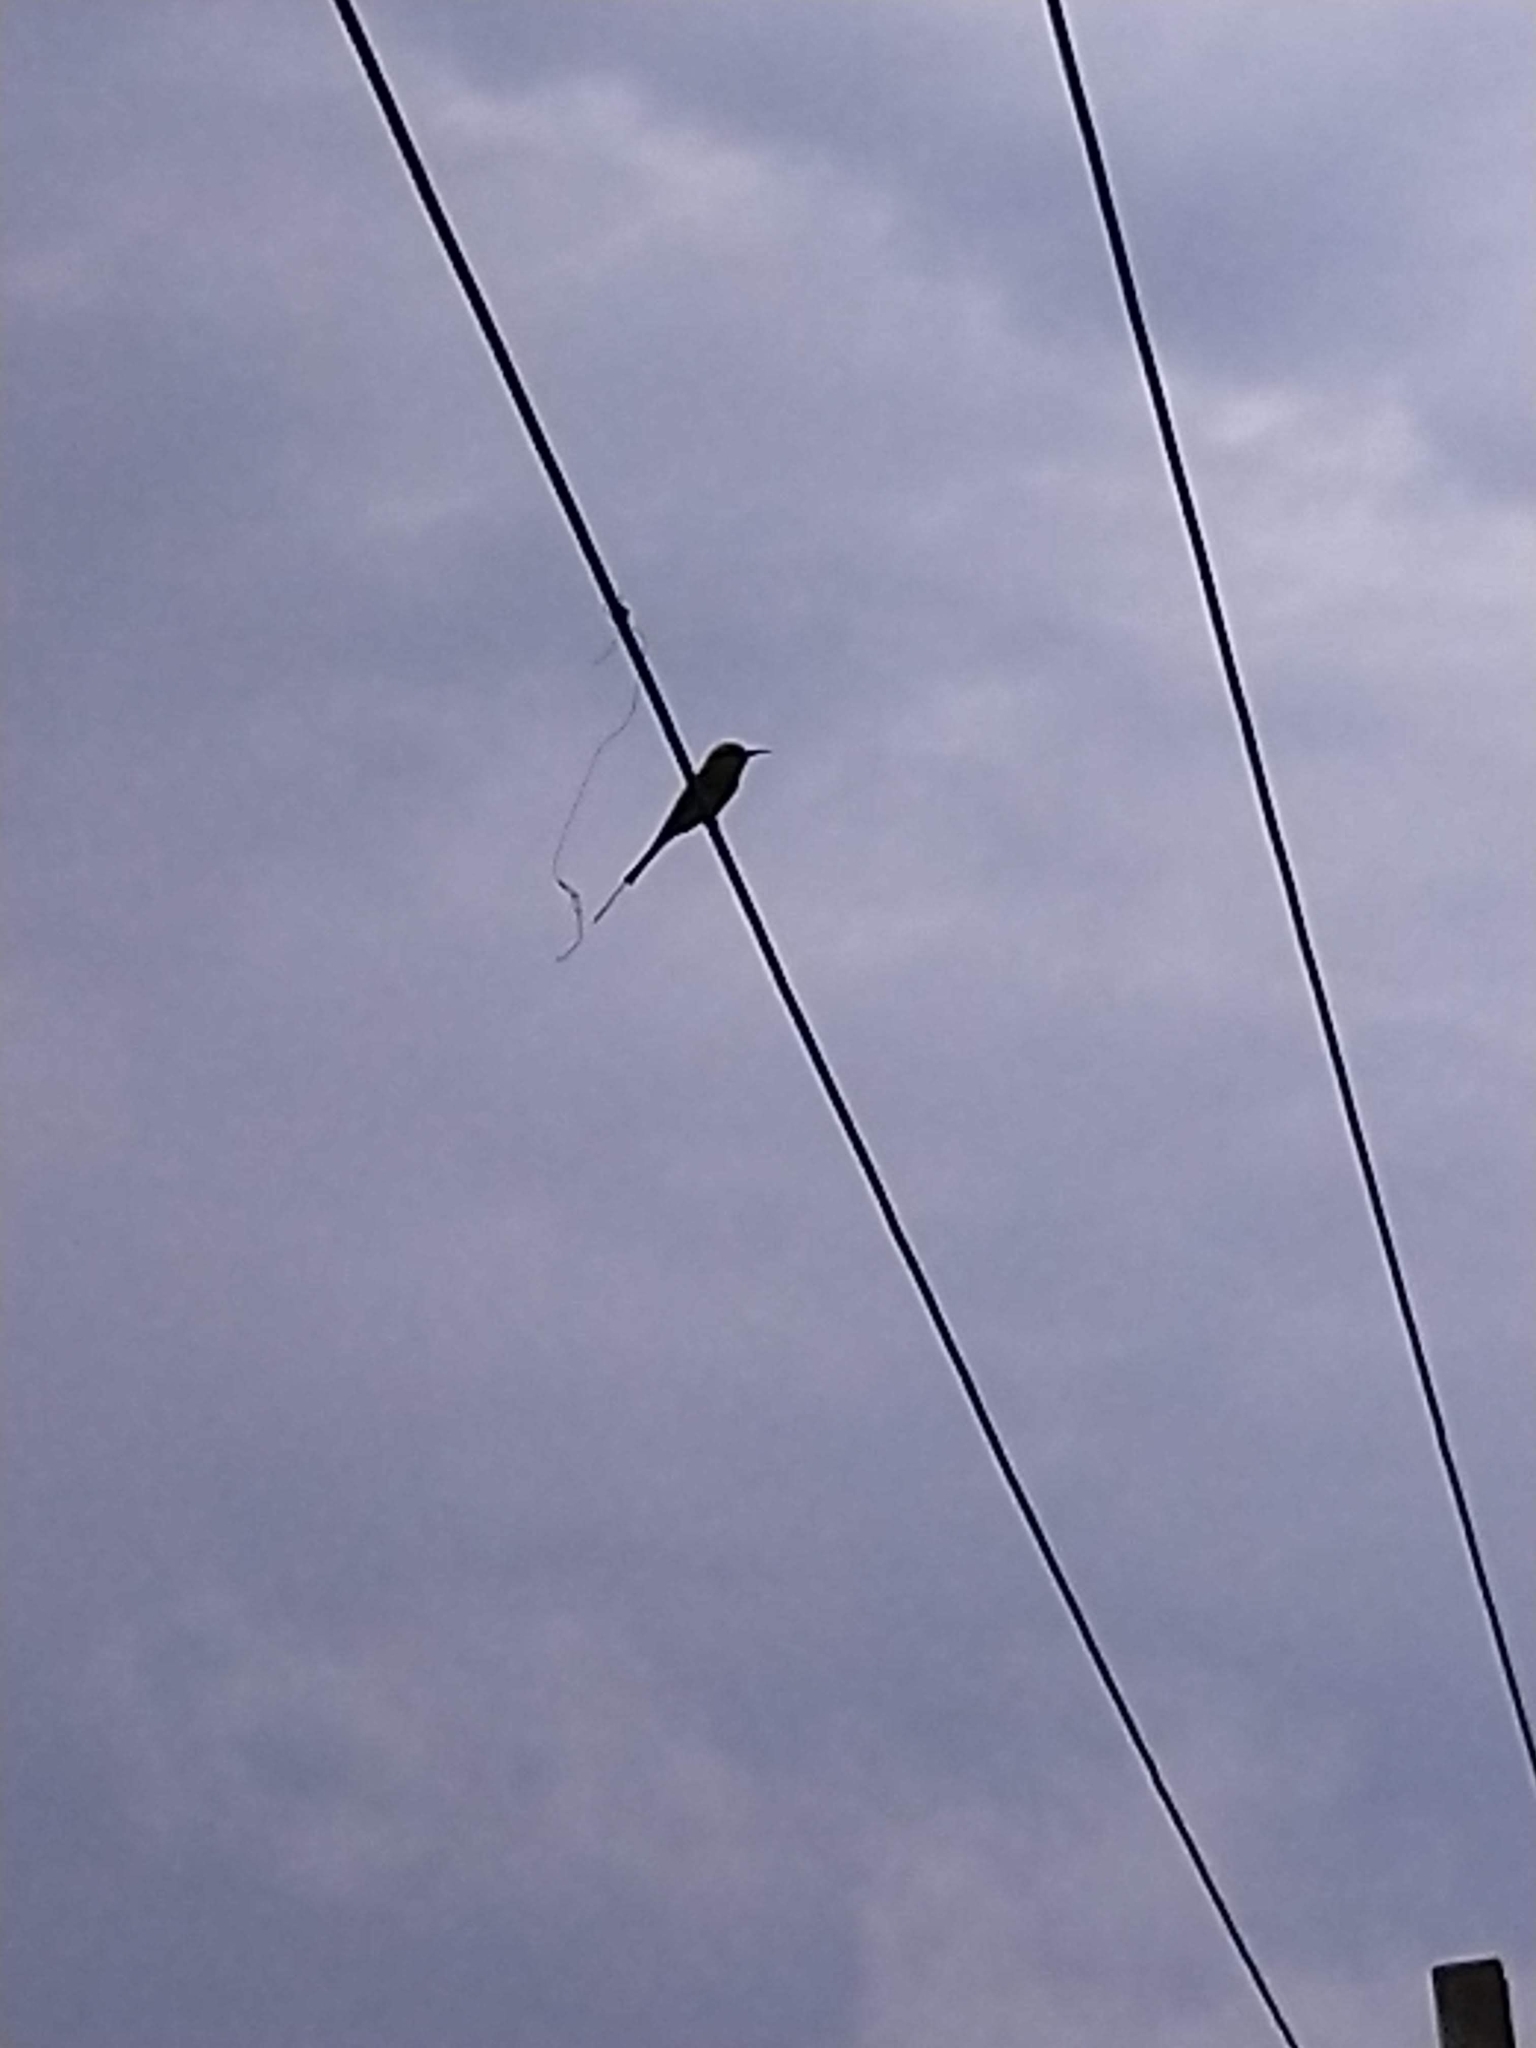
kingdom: Animalia
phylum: Chordata
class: Aves
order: Coraciiformes
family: Meropidae
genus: Merops
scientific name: Merops orientalis
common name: Green bee-eater
